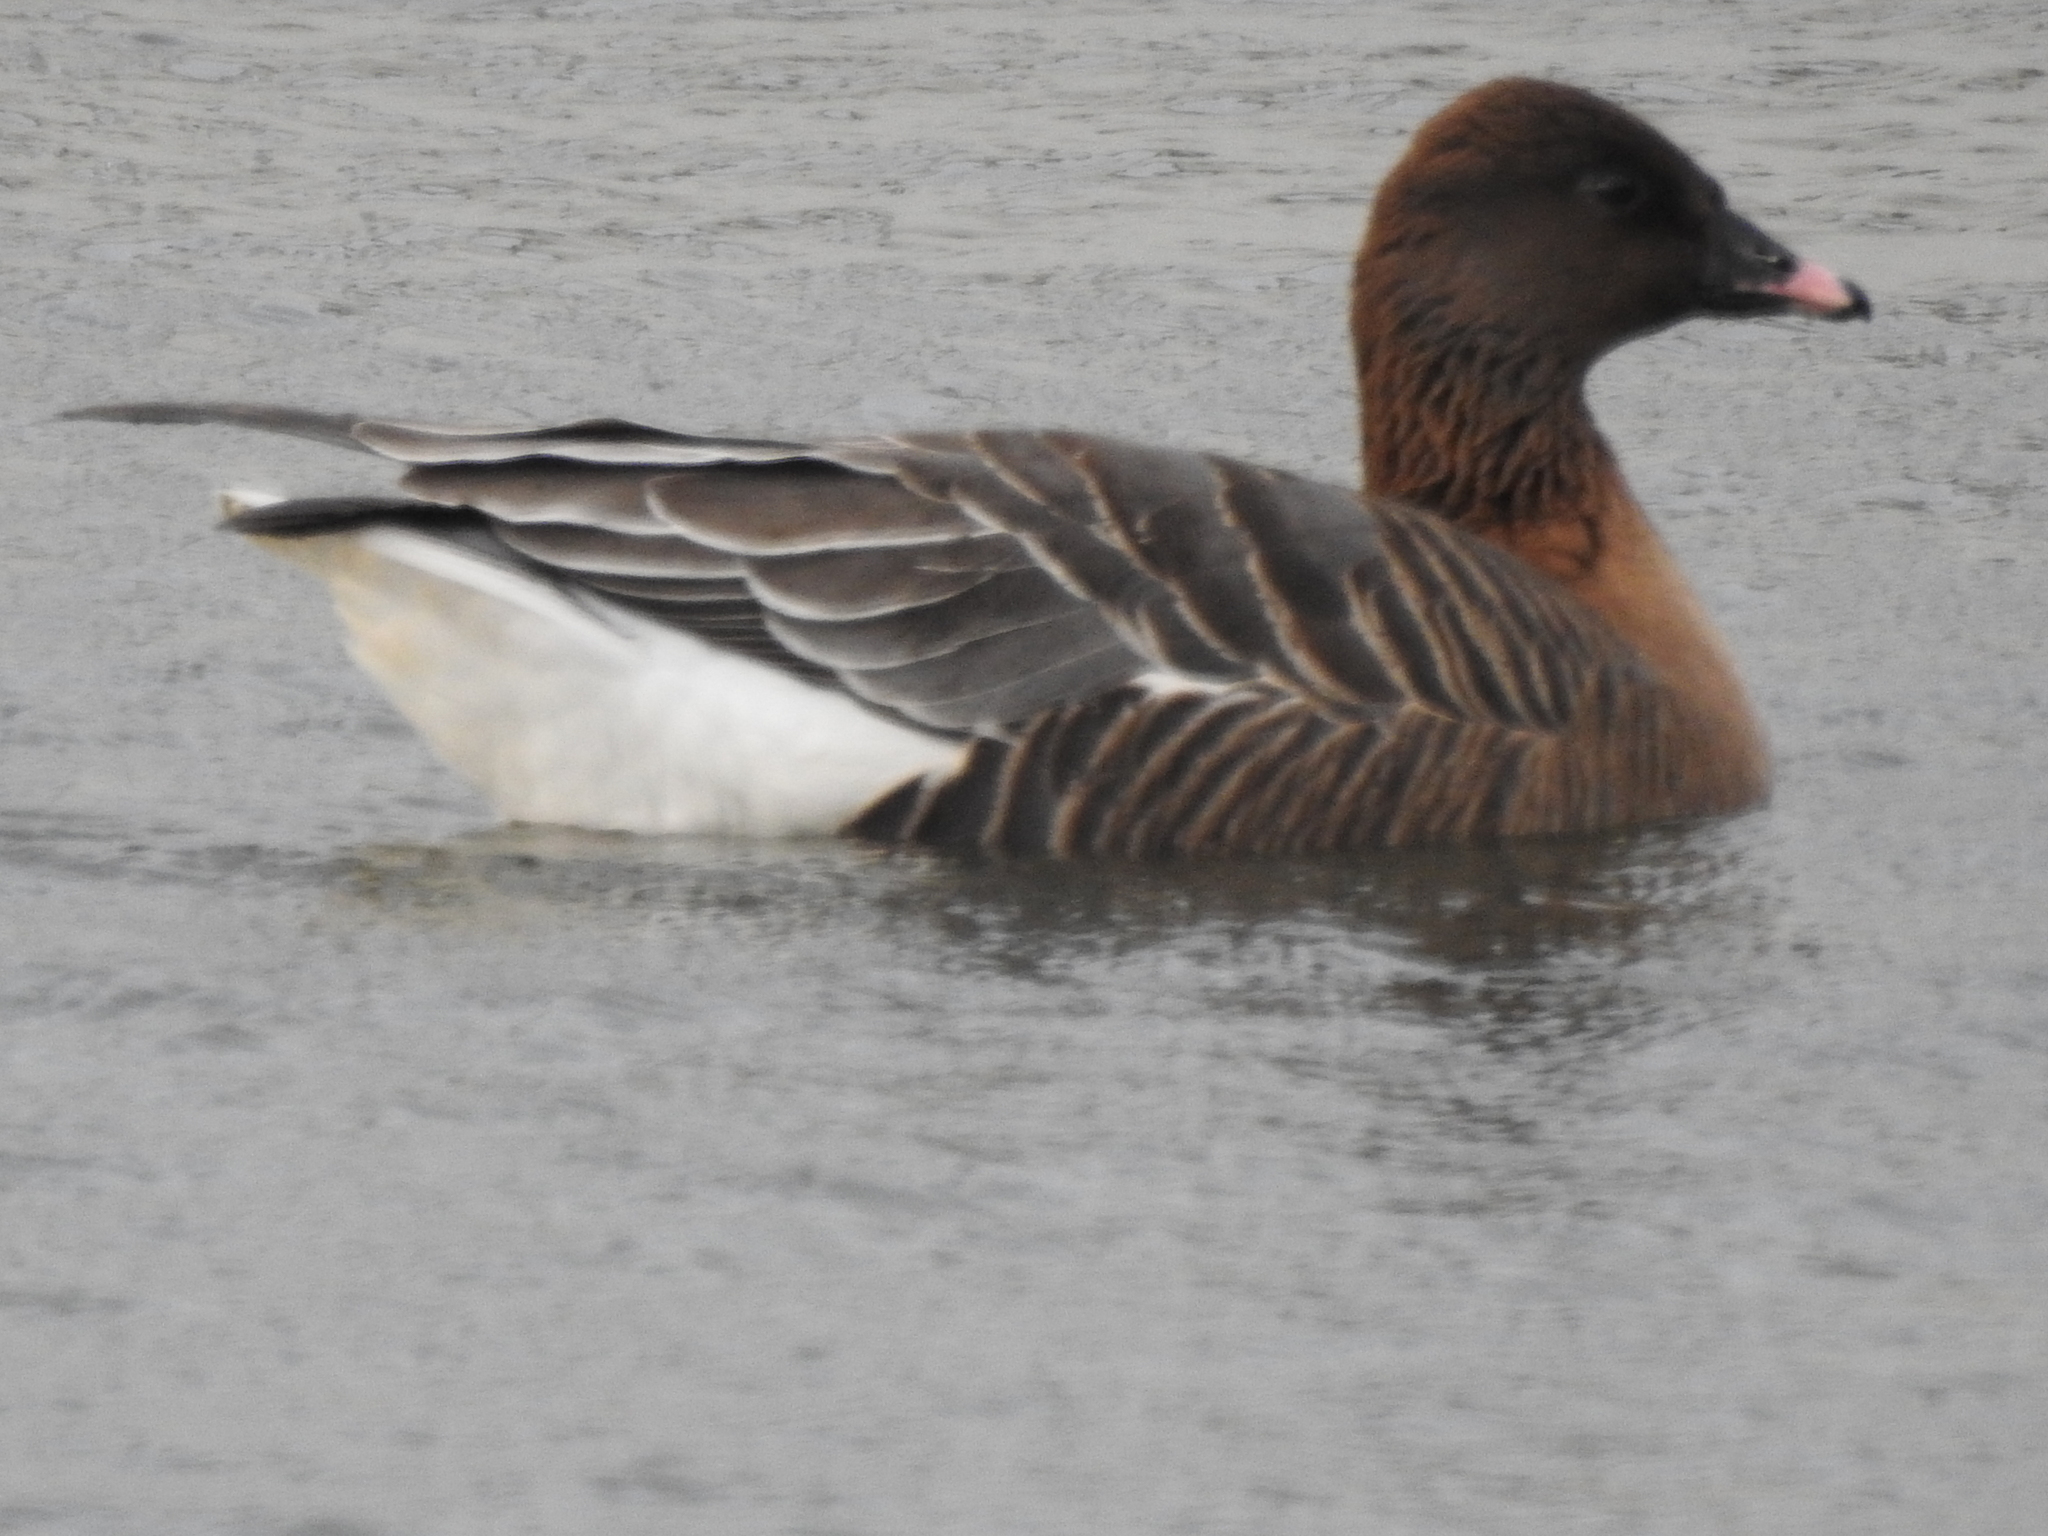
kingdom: Animalia
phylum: Chordata
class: Aves
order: Anseriformes
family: Anatidae
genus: Anser
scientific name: Anser brachyrhynchus
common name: Pink-footed goose
